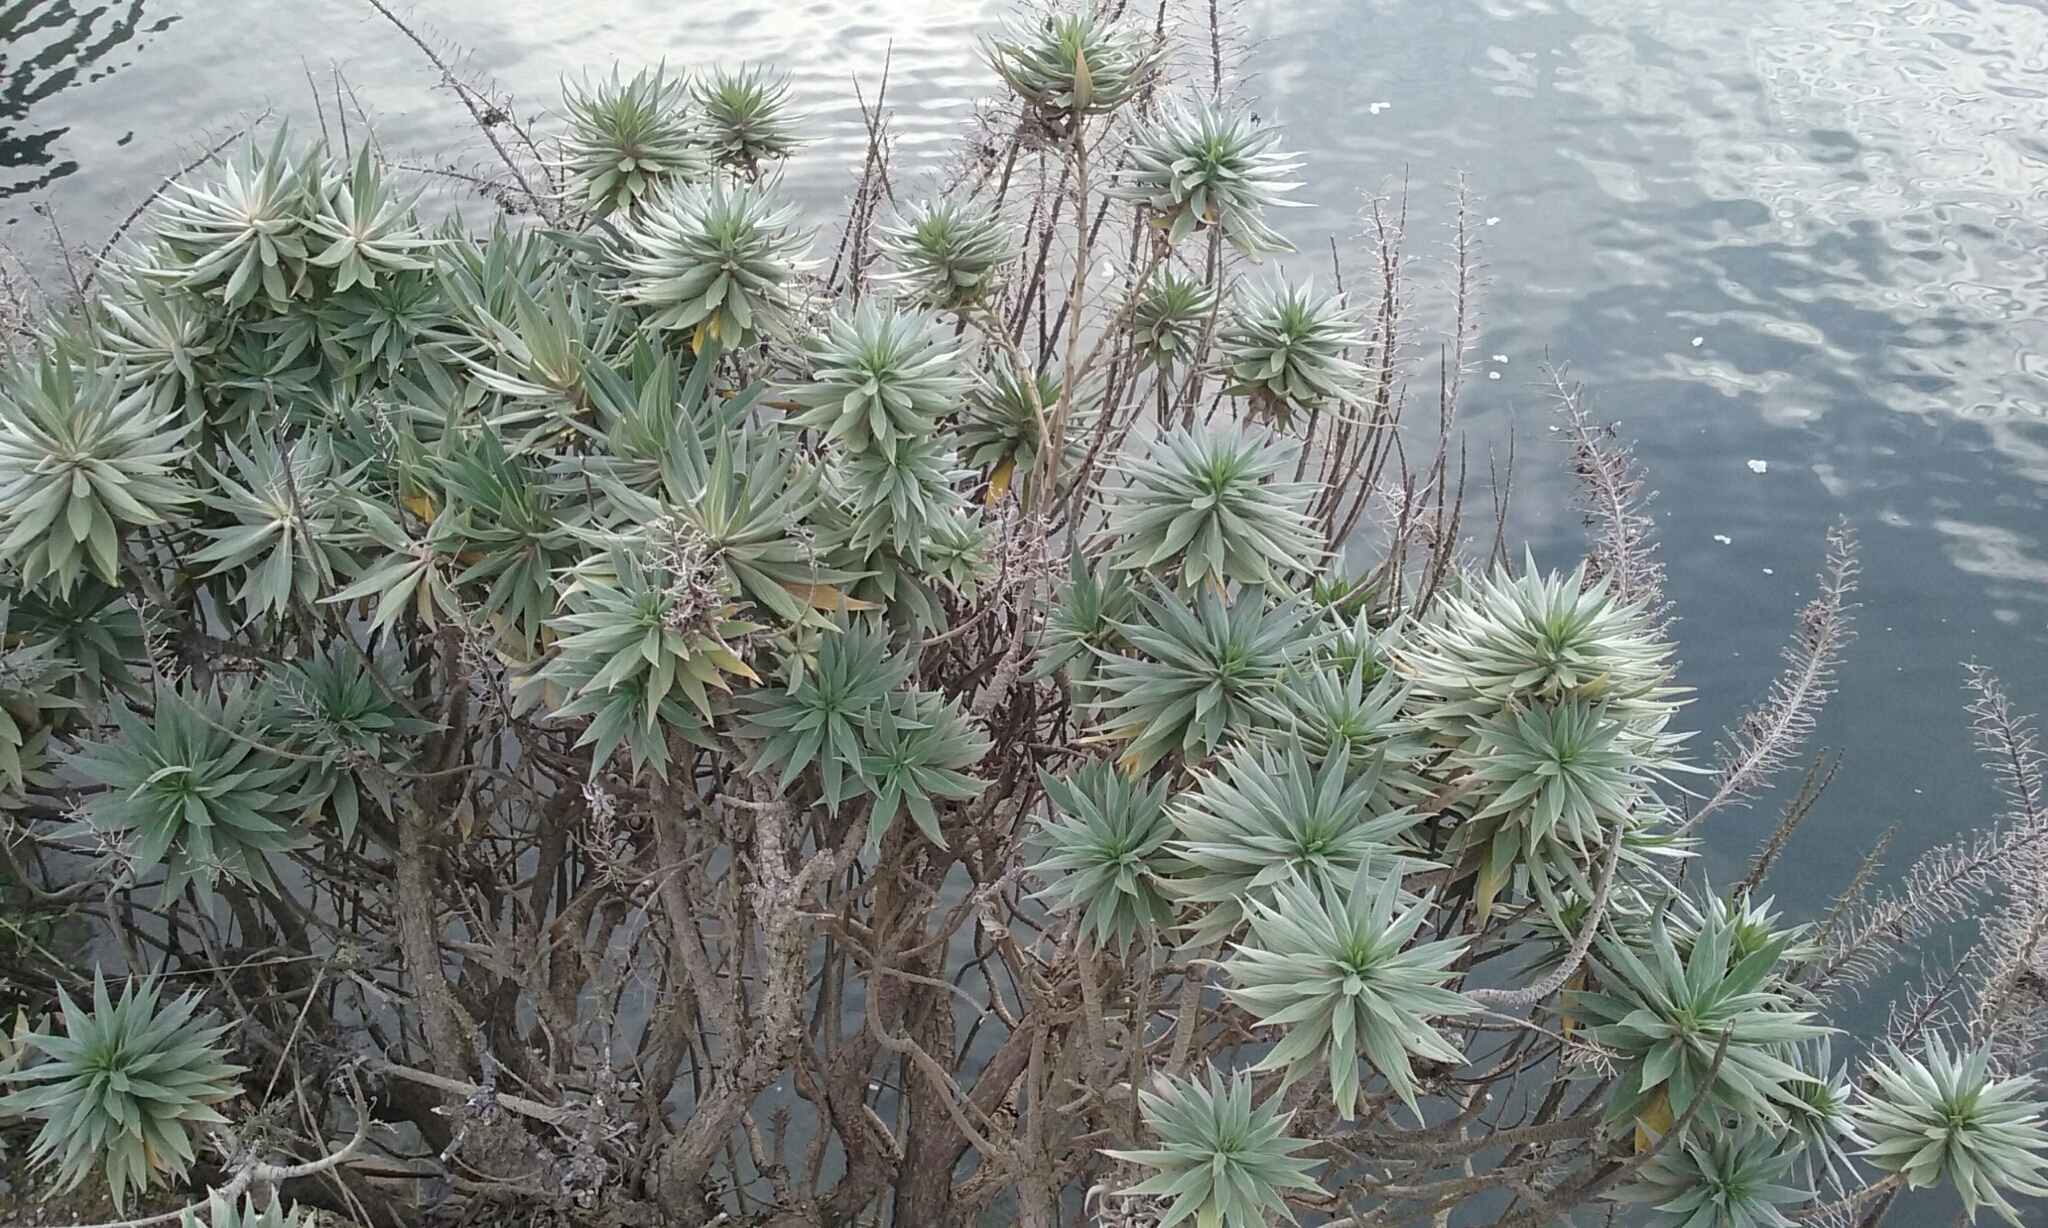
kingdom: Plantae
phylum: Tracheophyta
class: Magnoliopsida
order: Boraginales
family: Boraginaceae
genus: Echium
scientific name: Echium candicans
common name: Pride of madeira
